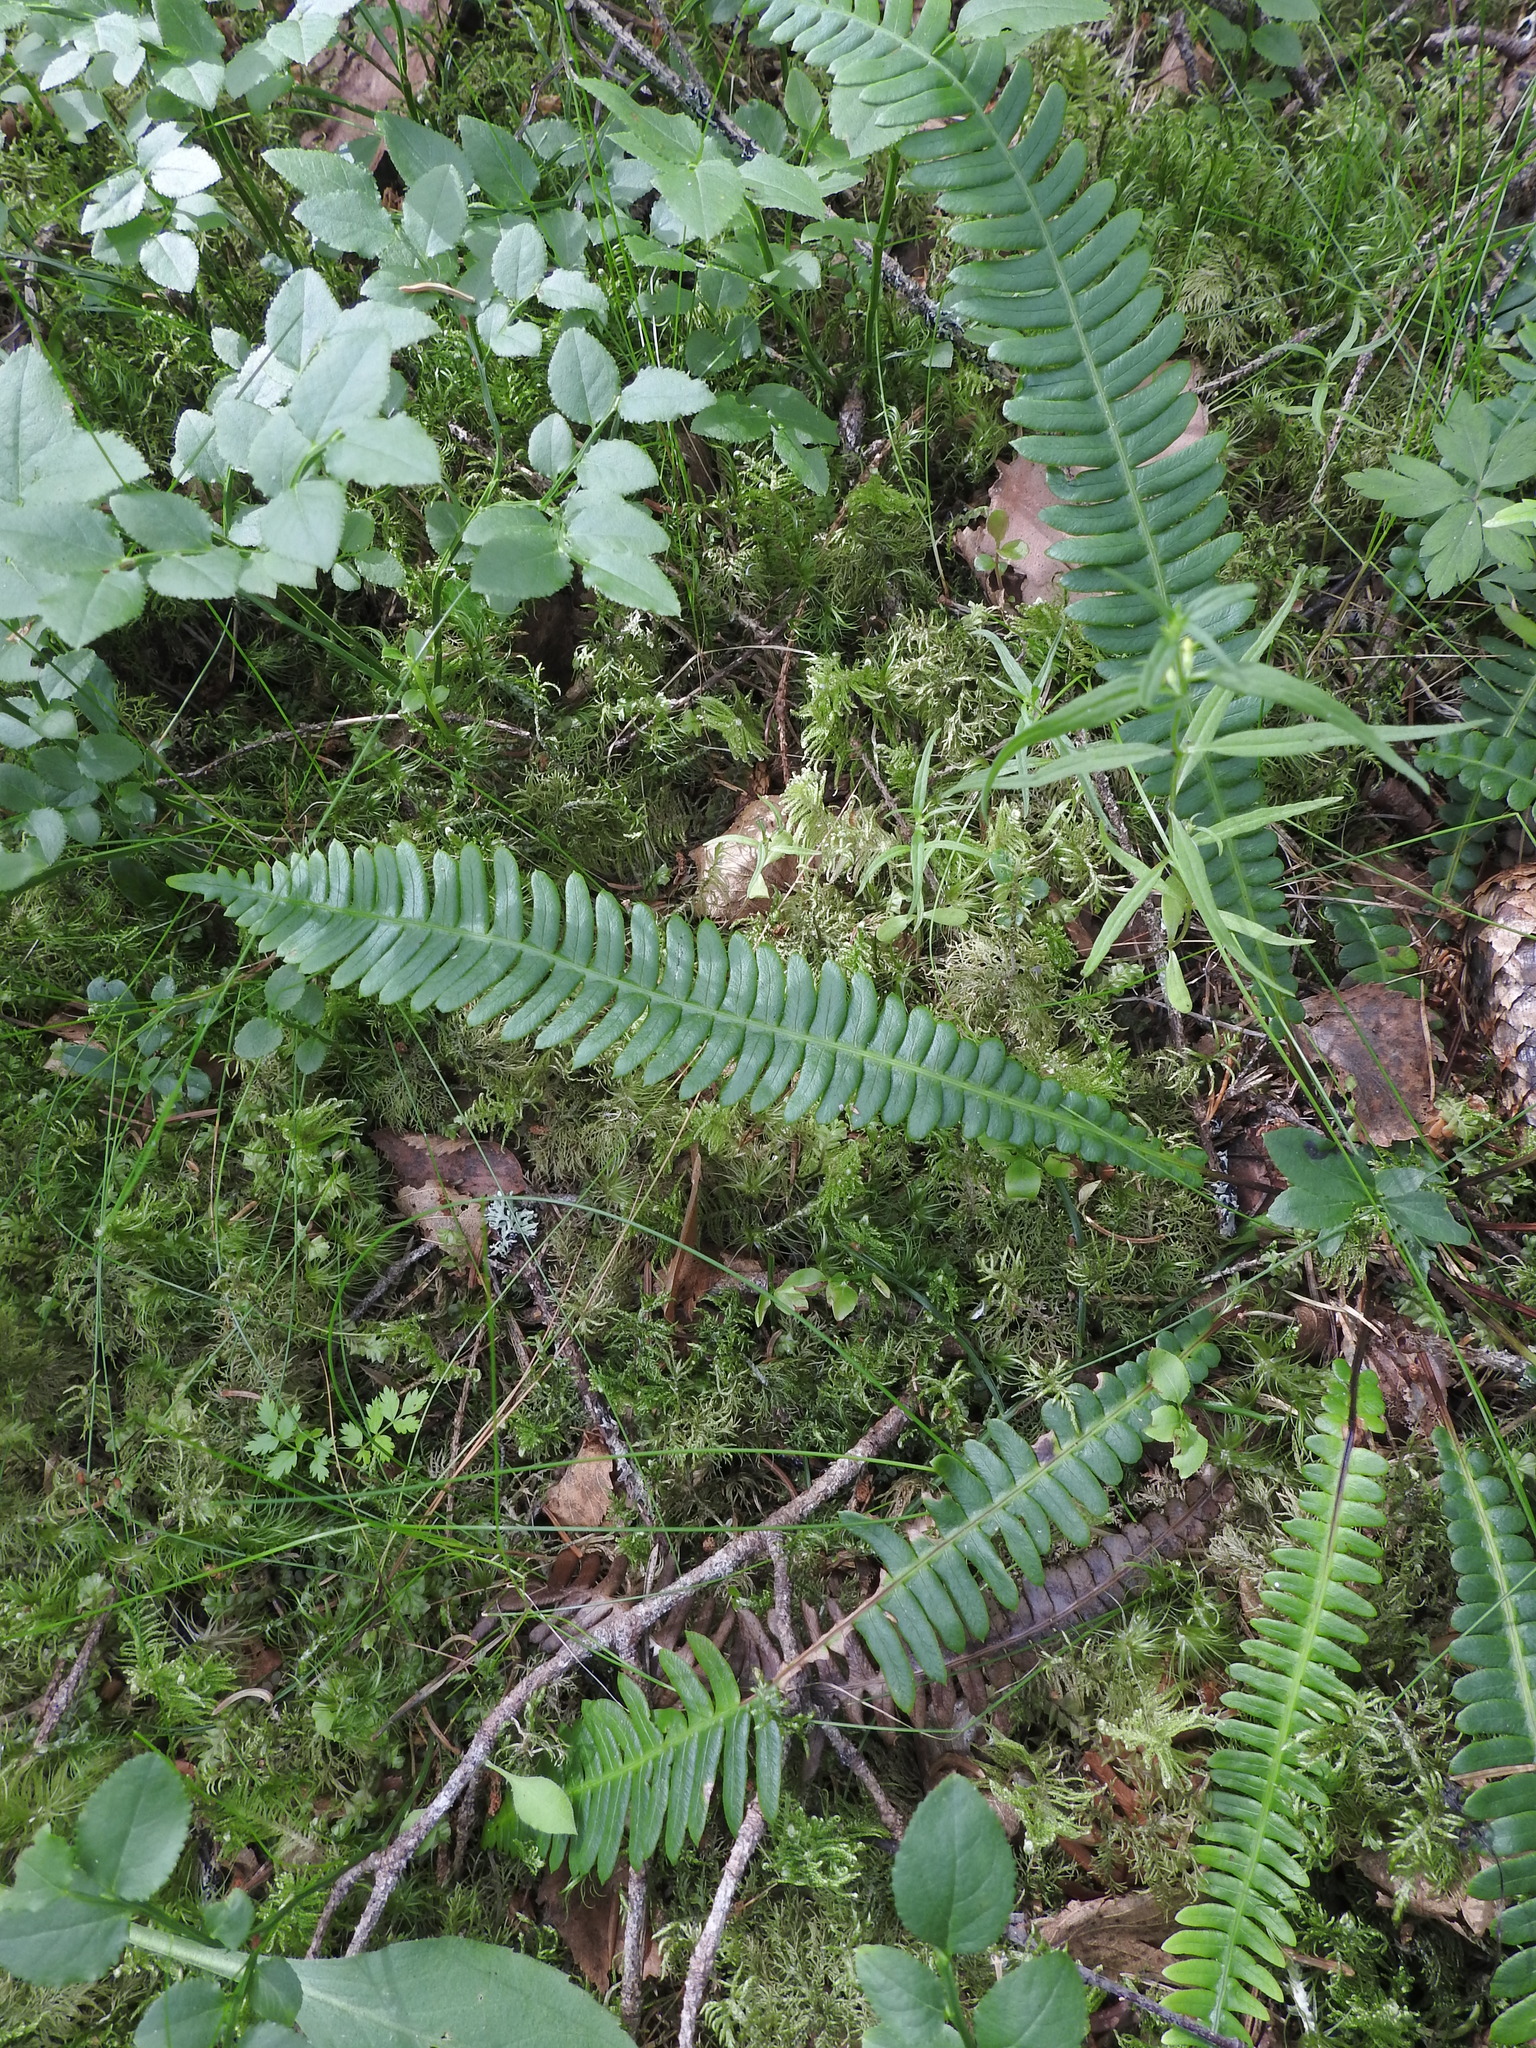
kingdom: Plantae
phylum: Tracheophyta
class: Polypodiopsida
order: Polypodiales
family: Blechnaceae
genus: Struthiopteris
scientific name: Struthiopteris spicant
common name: Deer fern
